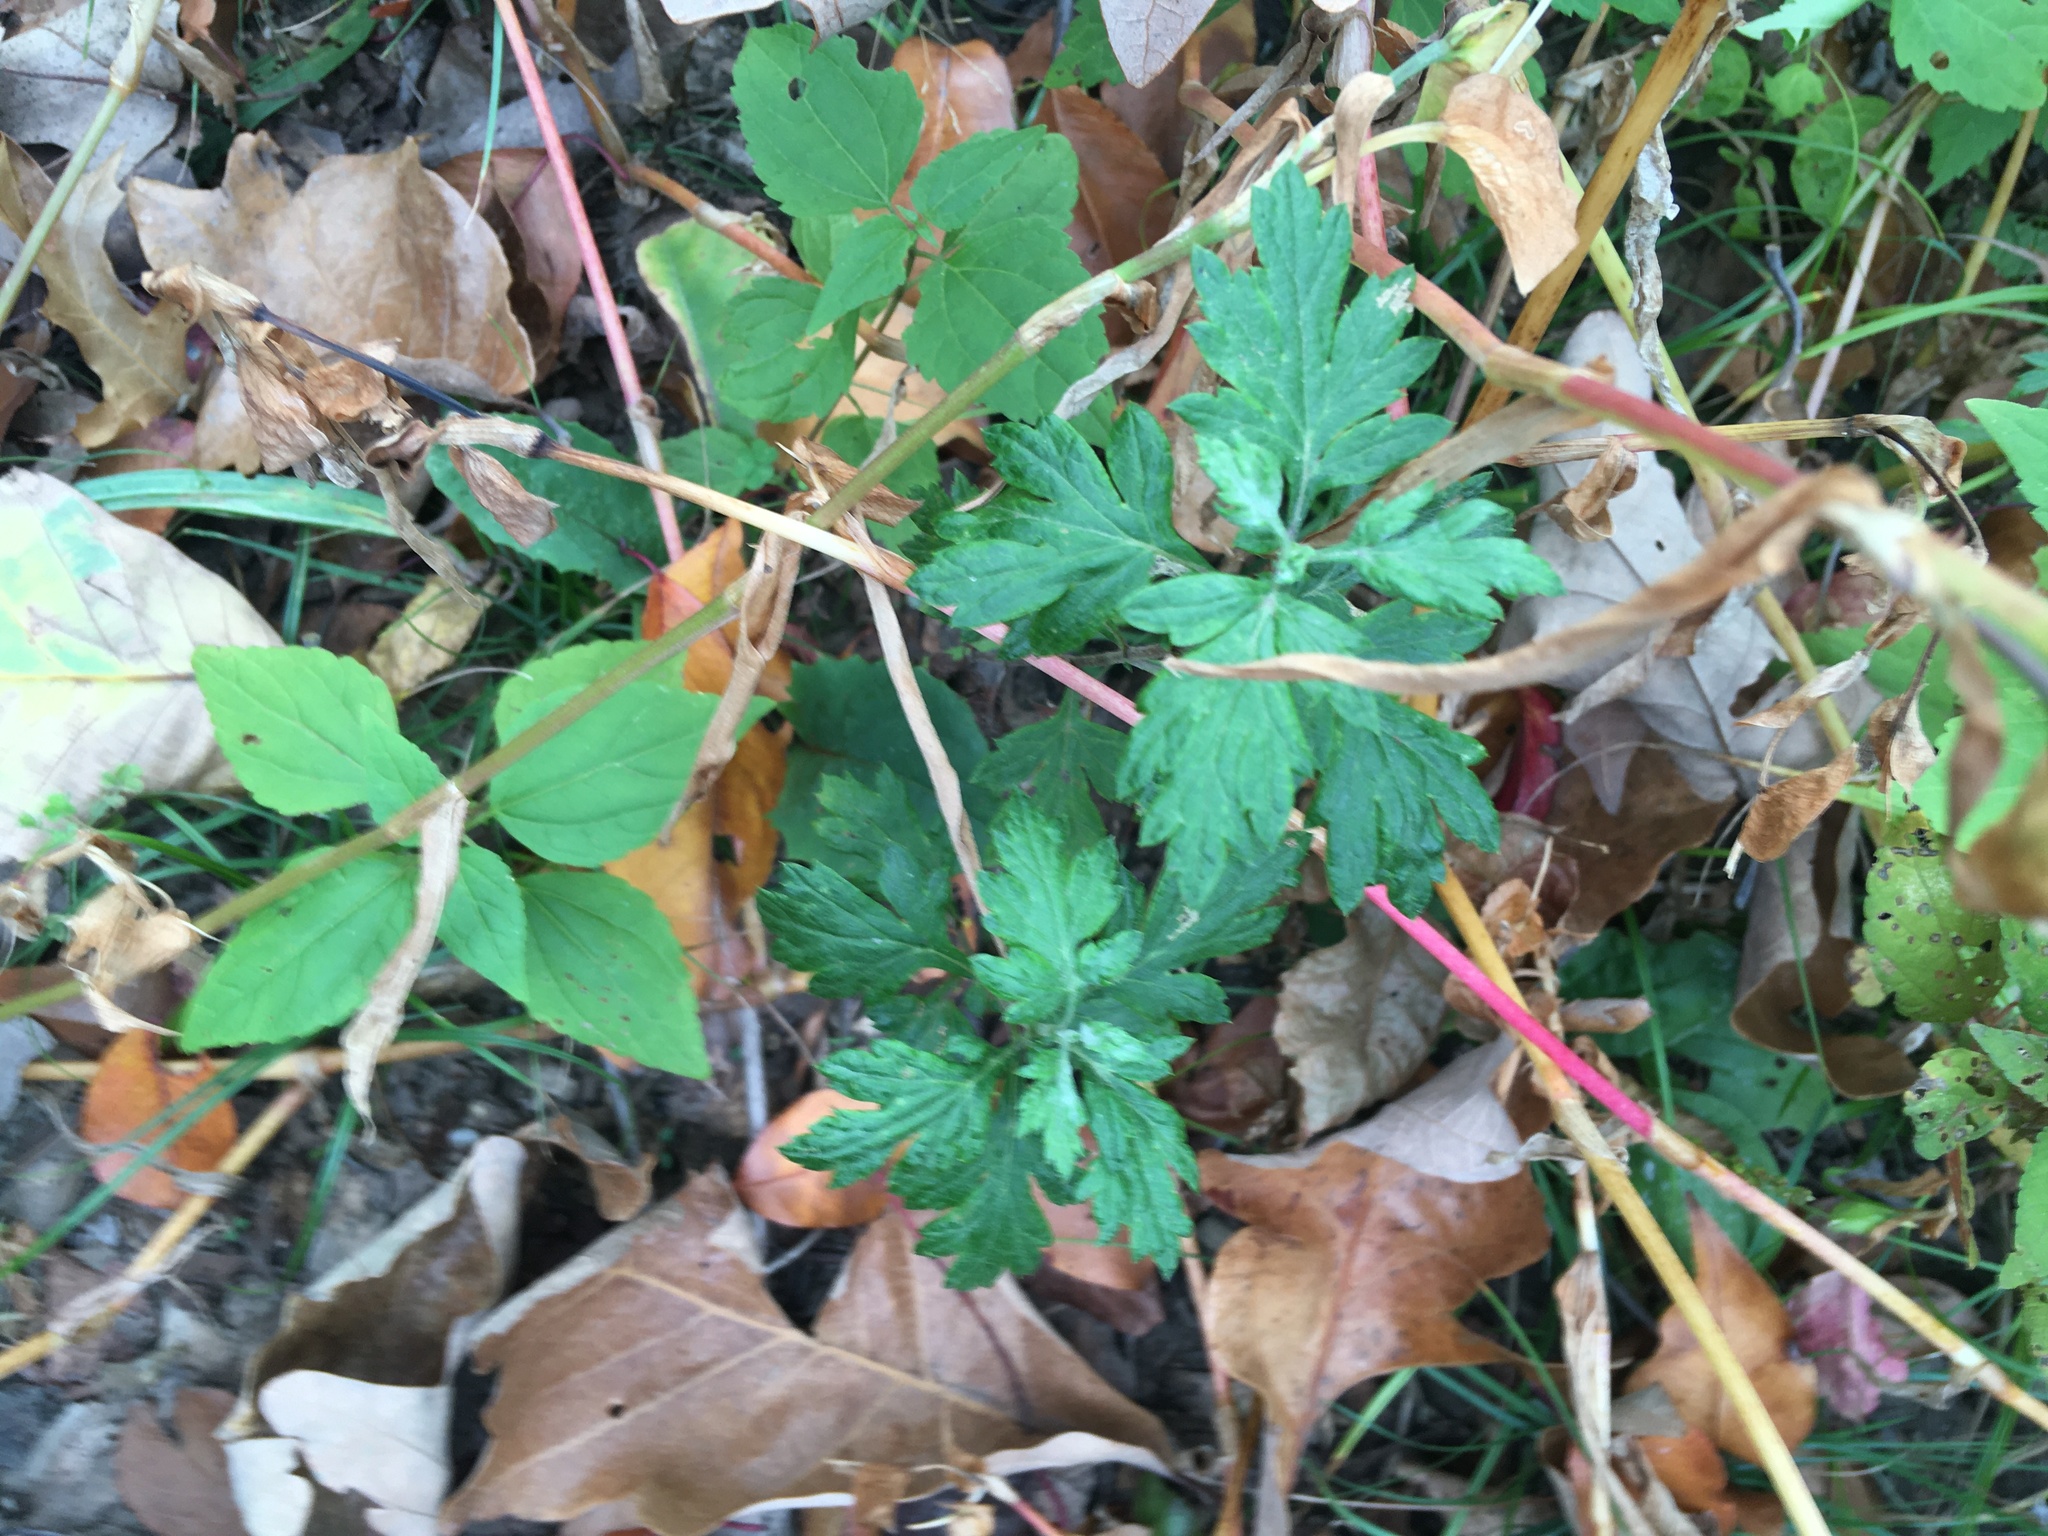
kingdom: Plantae
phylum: Tracheophyta
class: Magnoliopsida
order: Asterales
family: Asteraceae
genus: Artemisia
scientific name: Artemisia vulgaris
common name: Mugwort
